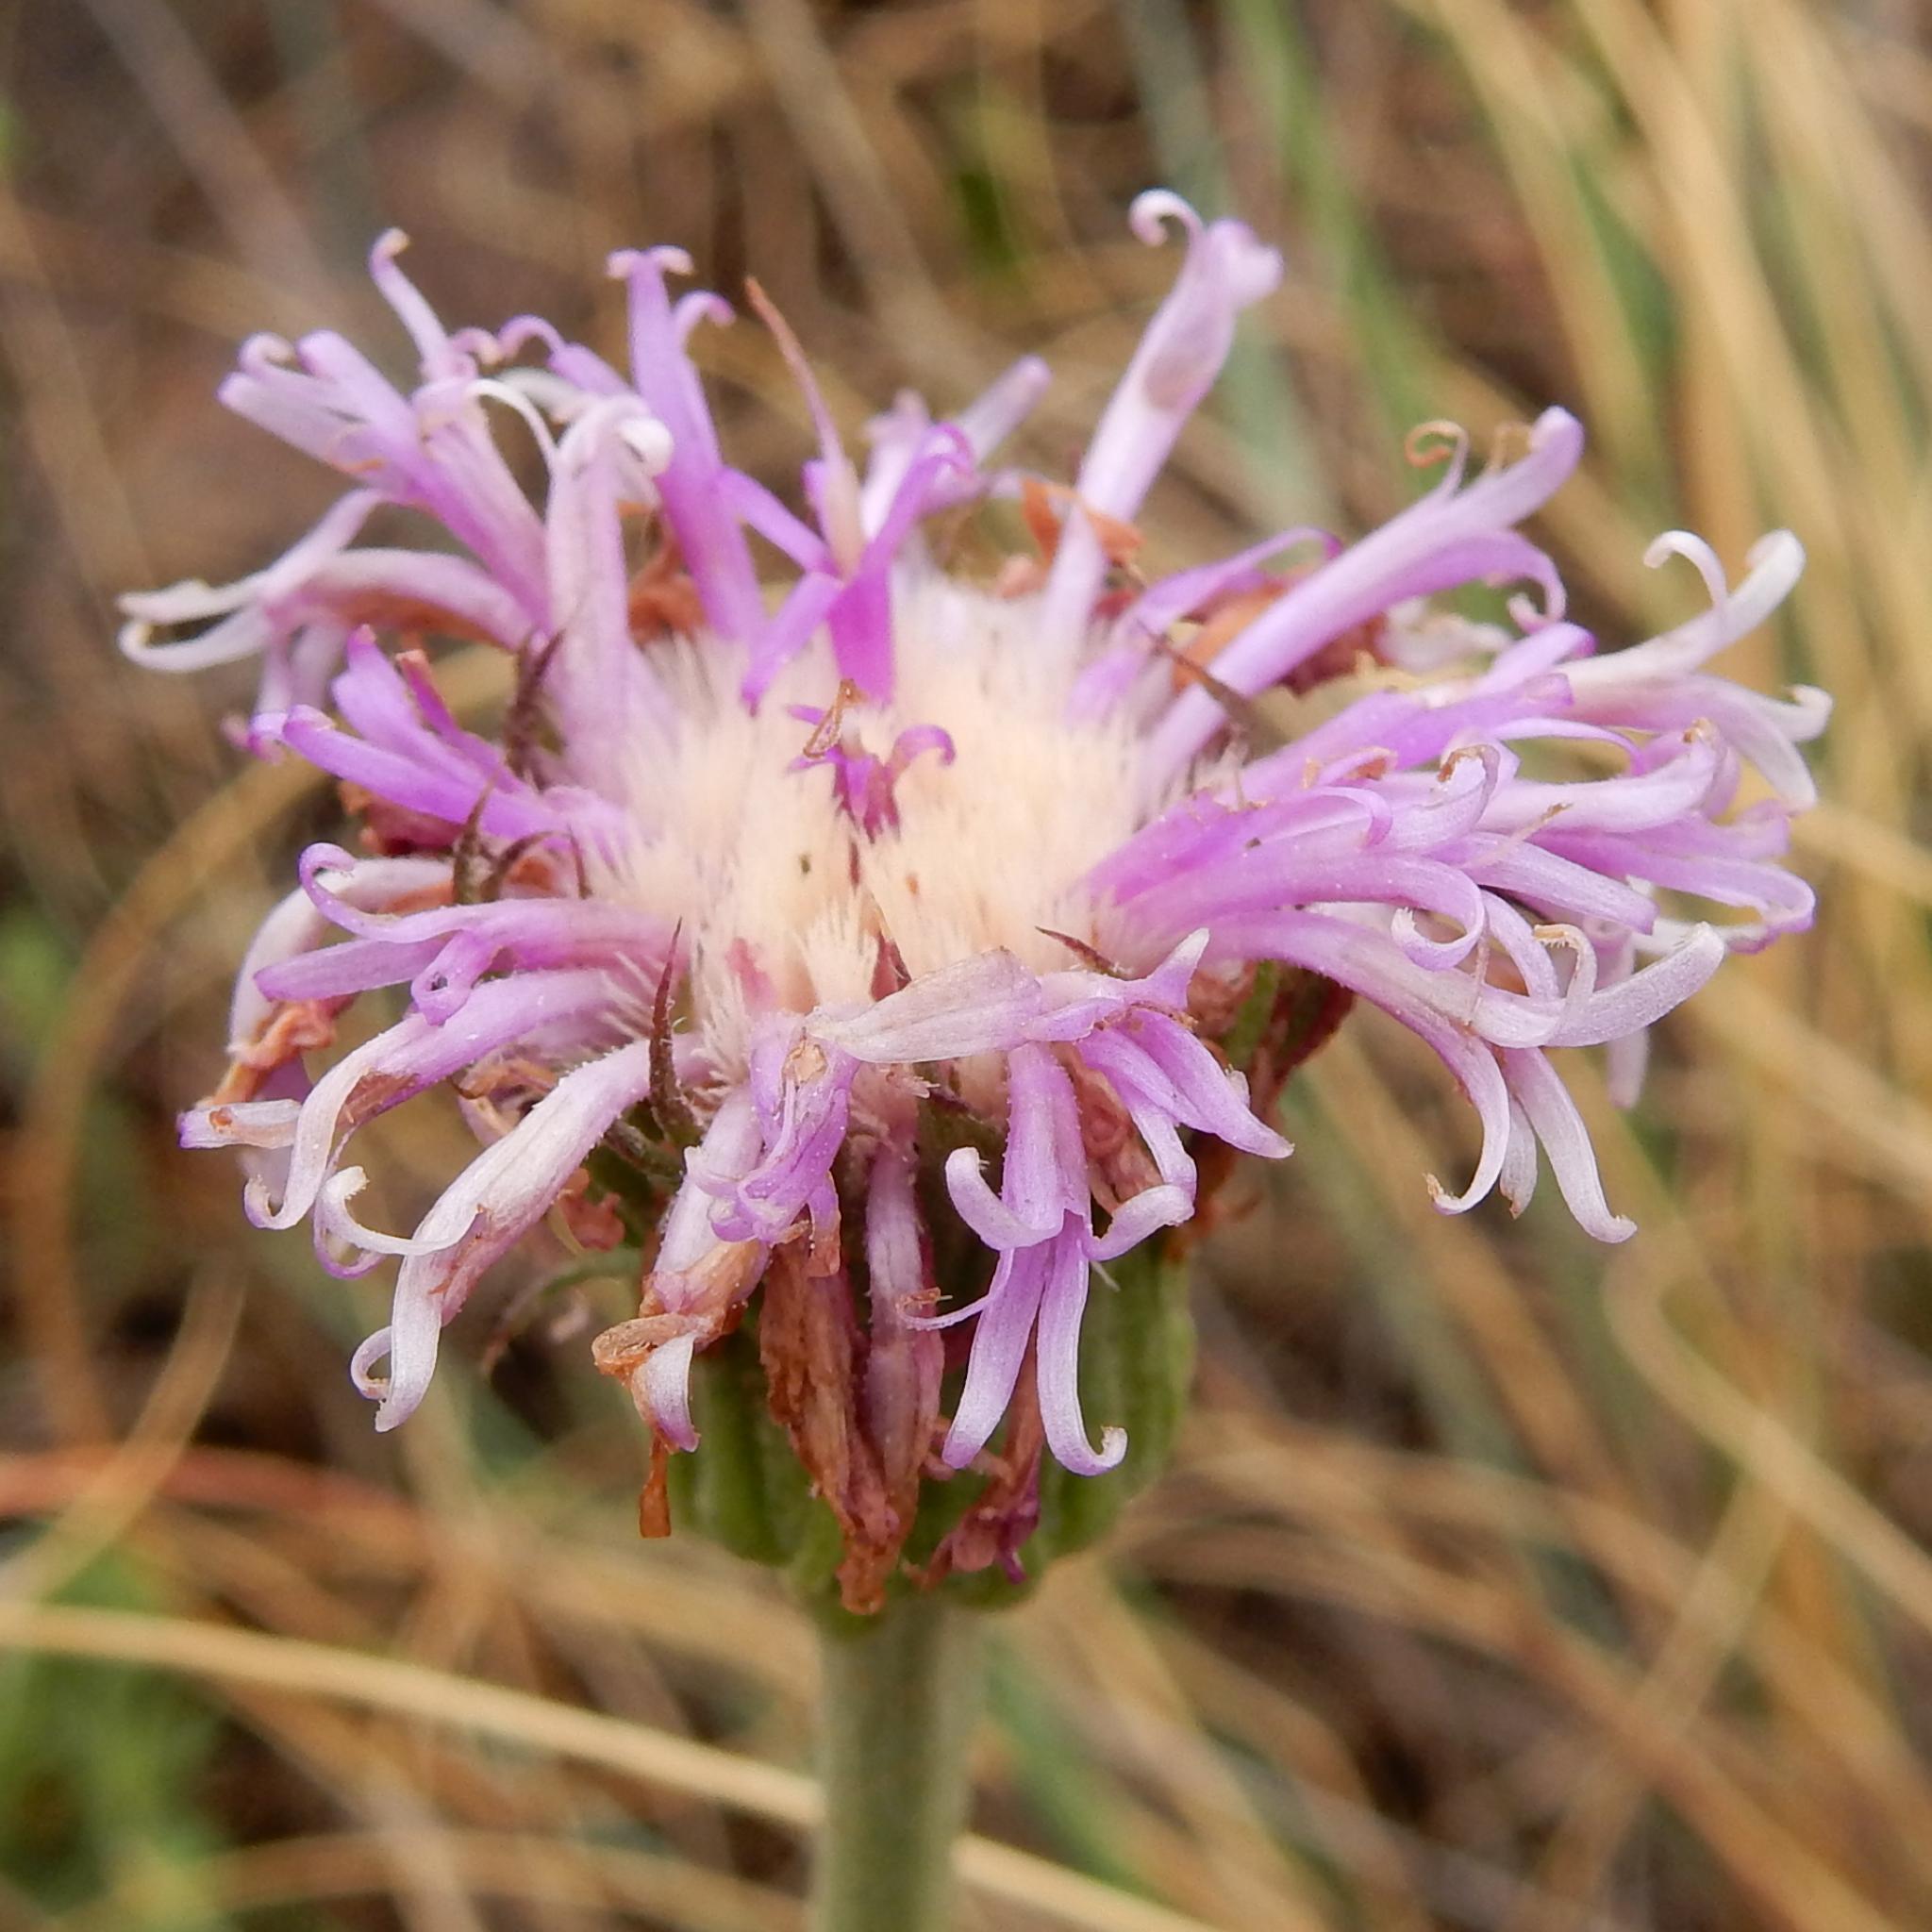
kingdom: Plantae
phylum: Tracheophyta
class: Magnoliopsida
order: Asterales
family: Asteraceae
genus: Pseudopegolettia
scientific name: Pseudopegolettia tenella
